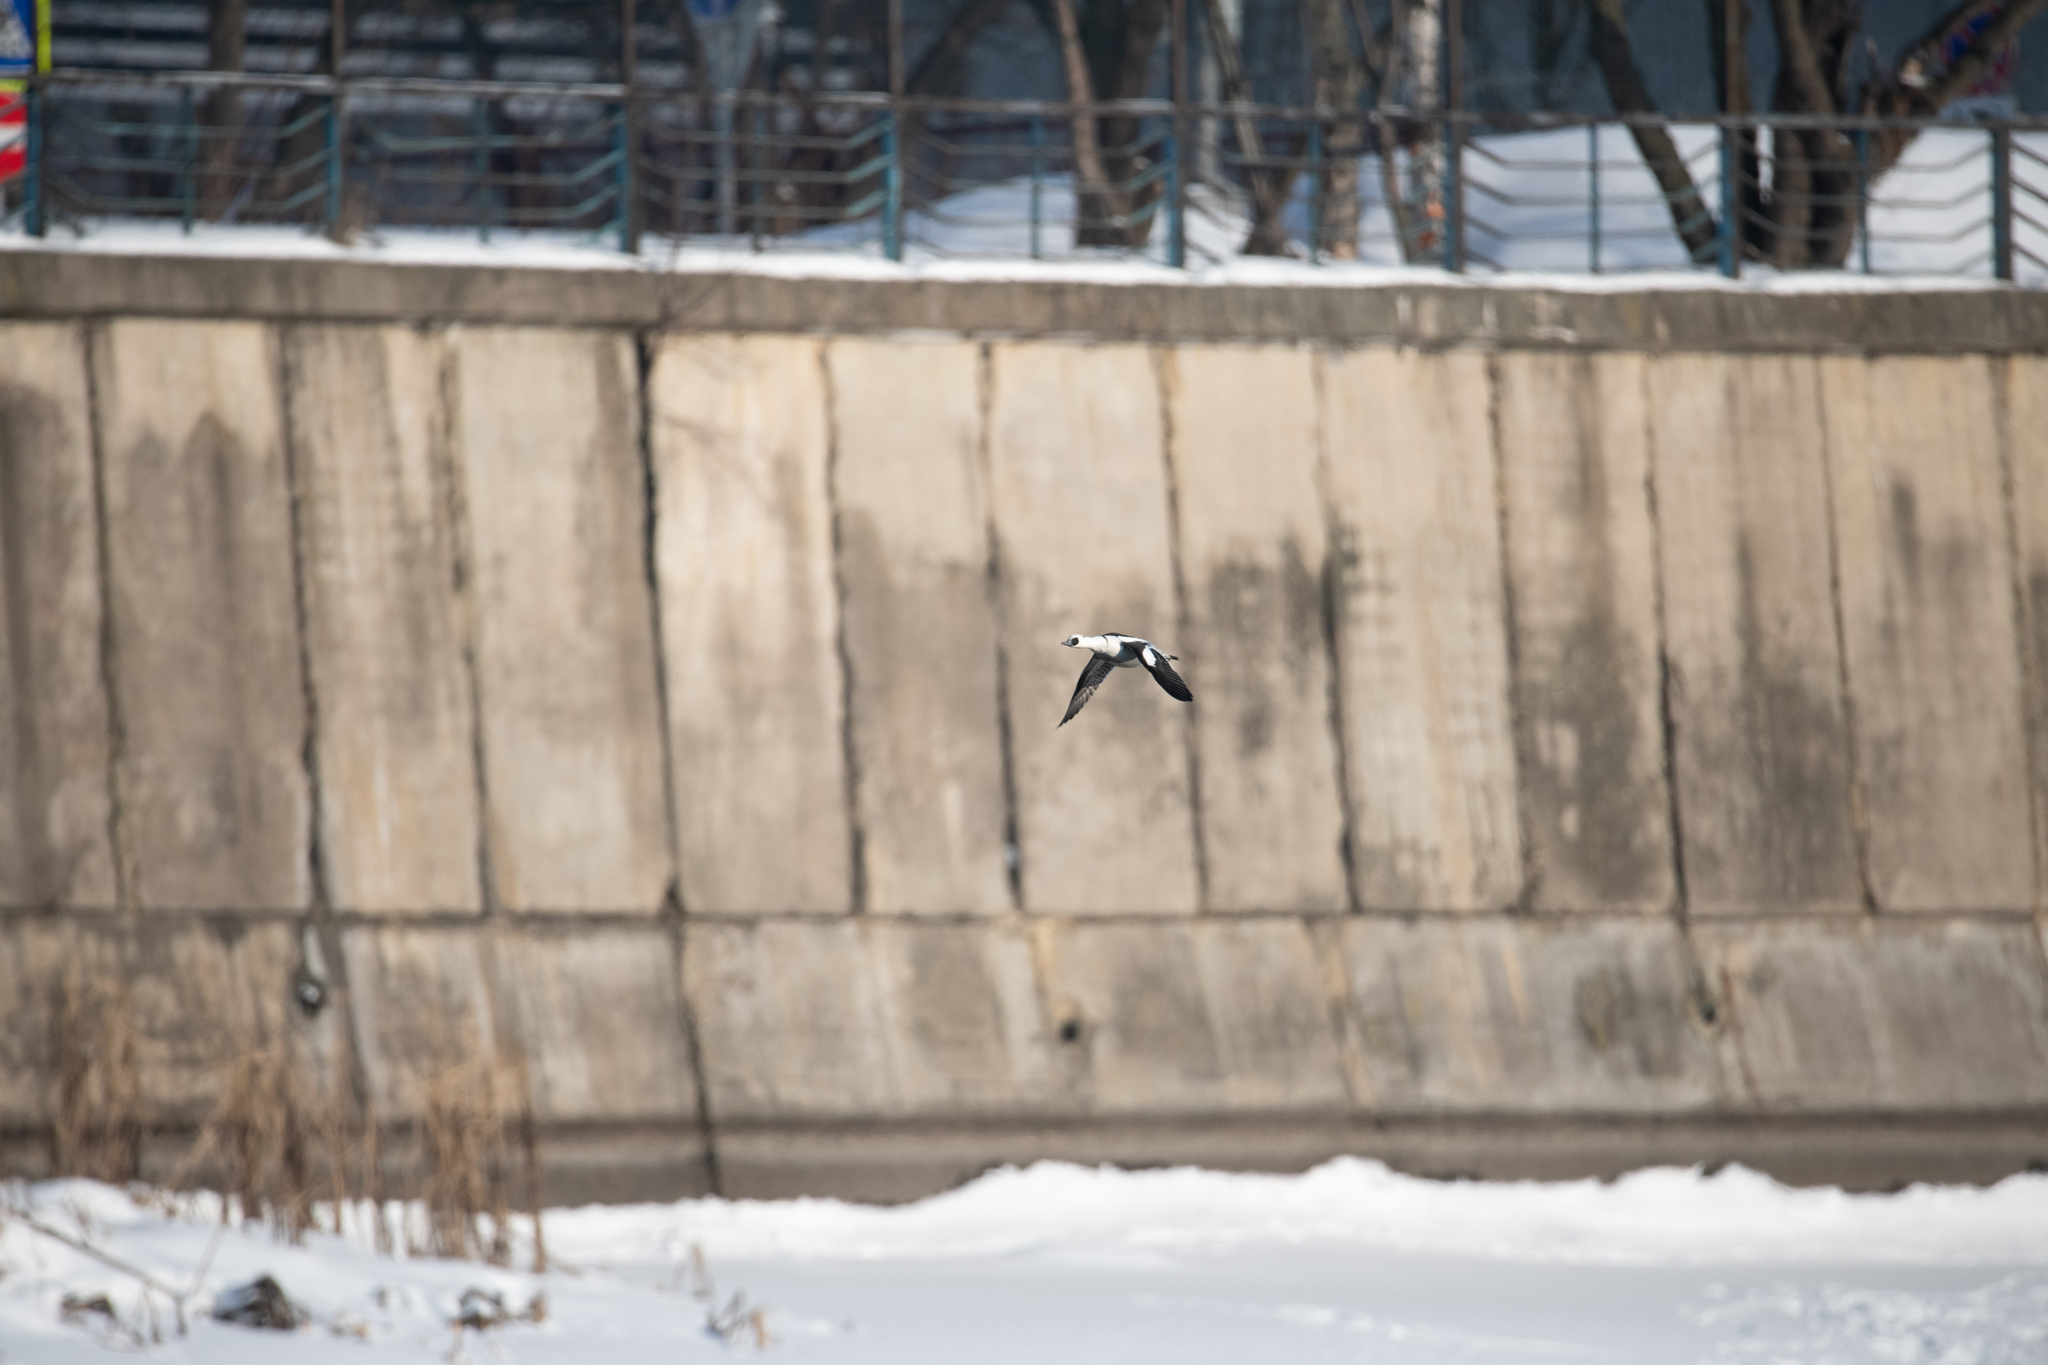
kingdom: Animalia
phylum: Chordata
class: Aves
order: Anseriformes
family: Anatidae
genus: Mergellus
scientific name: Mergellus albellus
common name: Smew
